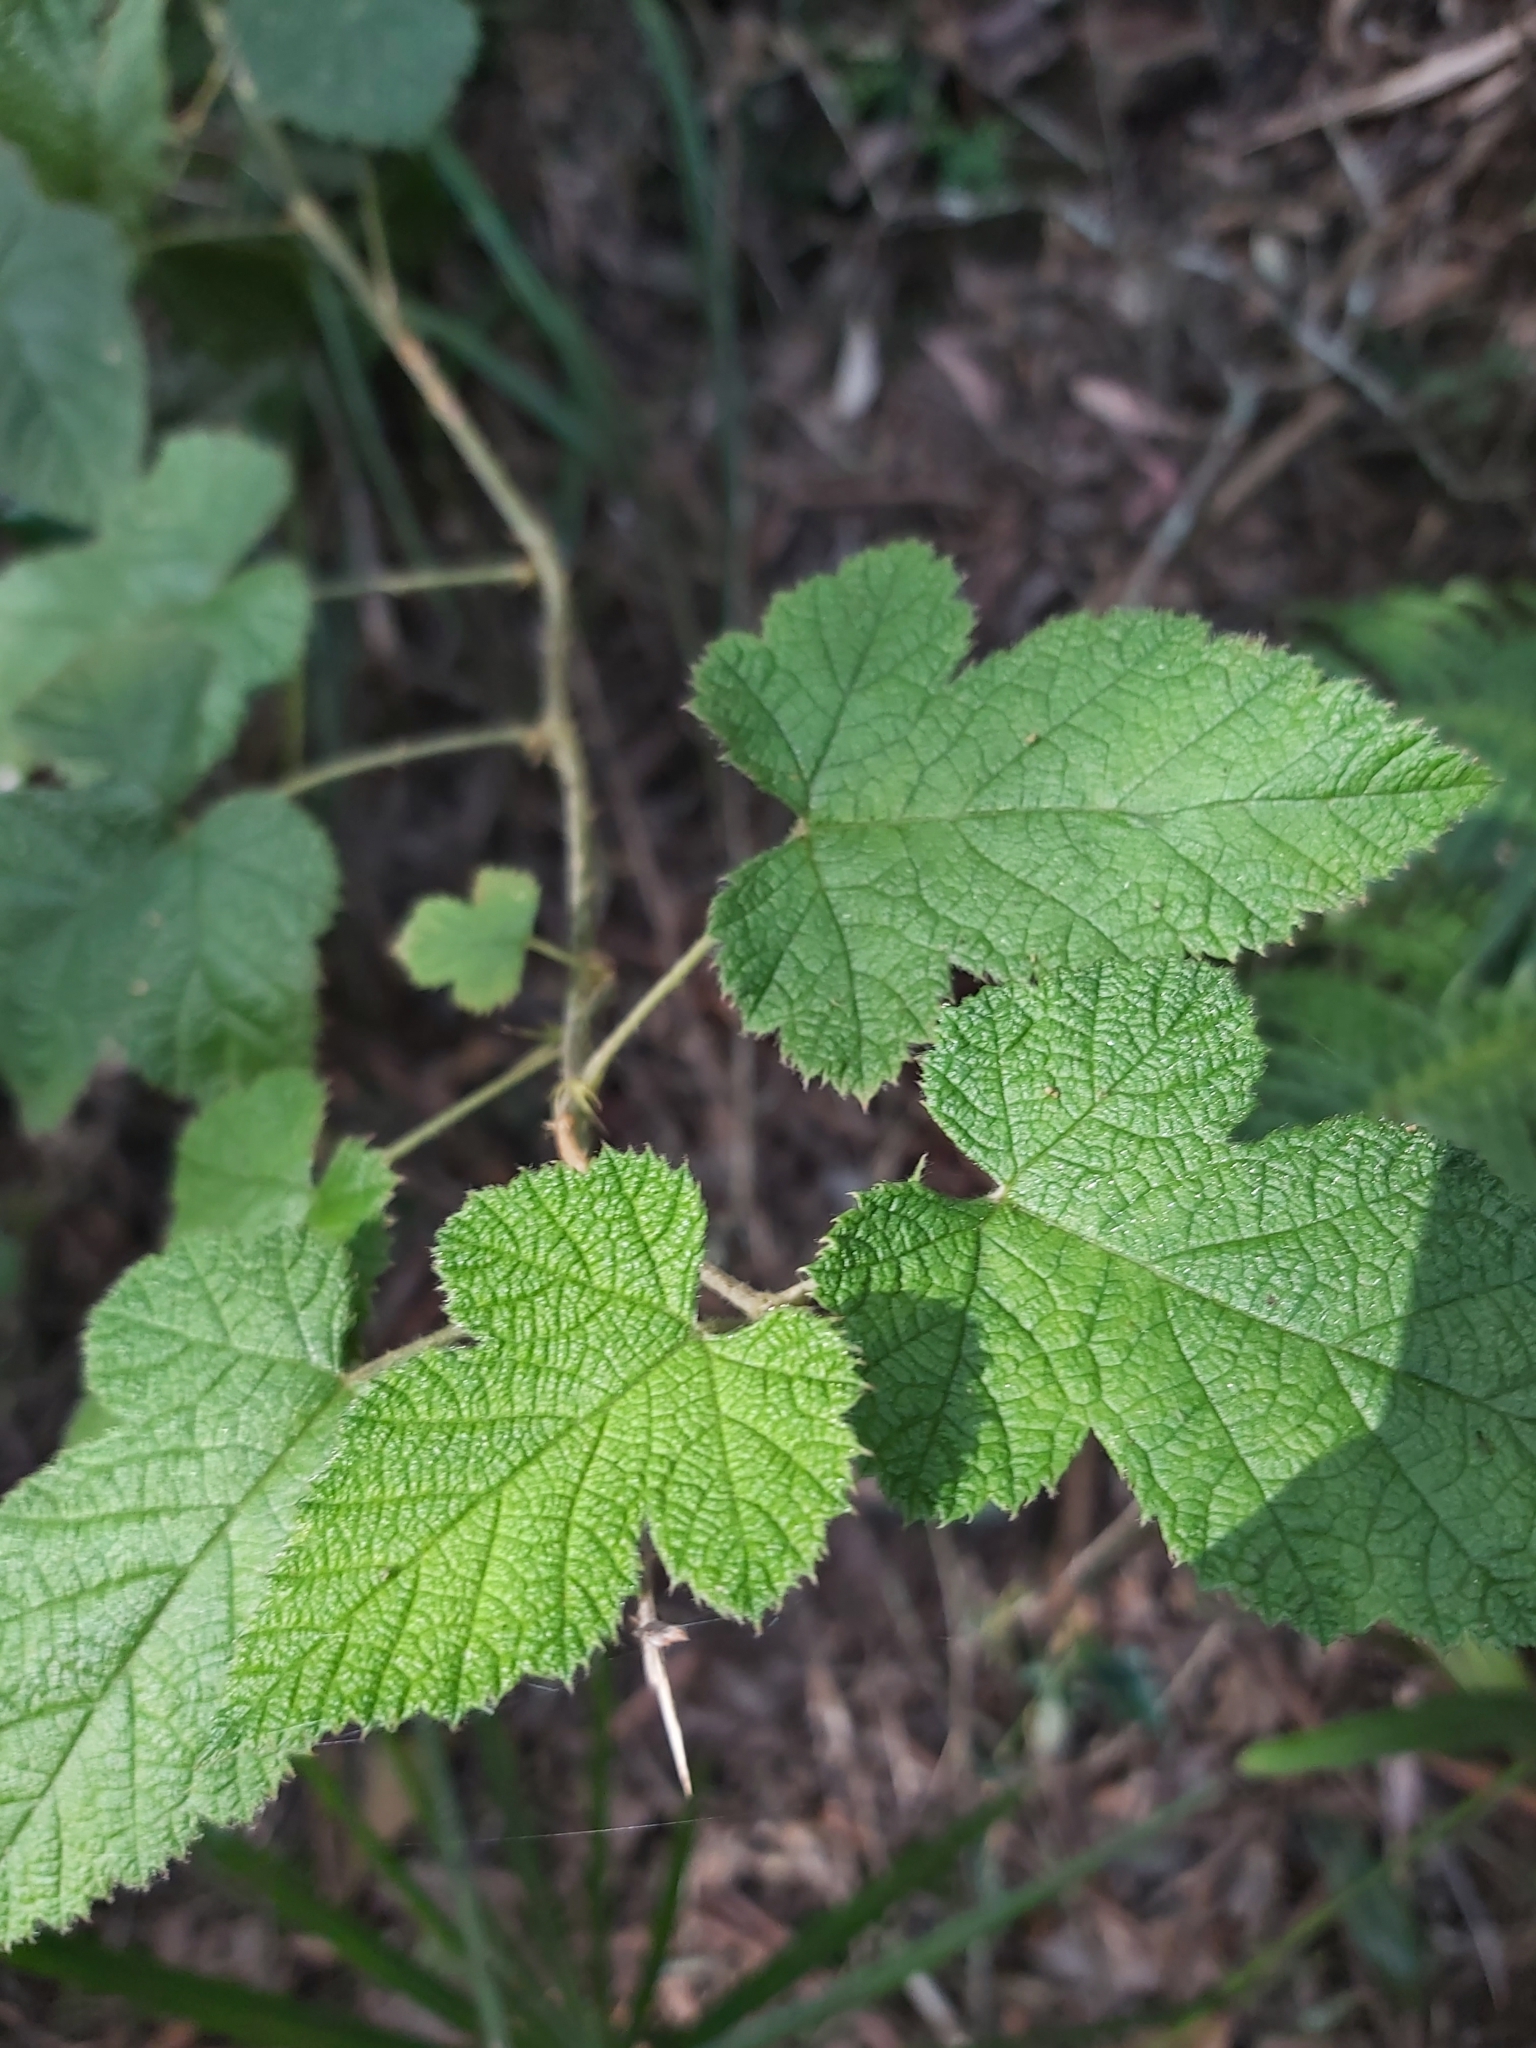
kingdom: Plantae
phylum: Tracheophyta
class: Magnoliopsida
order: Rosales
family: Rosaceae
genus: Rubus
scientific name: Rubus moluccanus
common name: Wild raspberry
